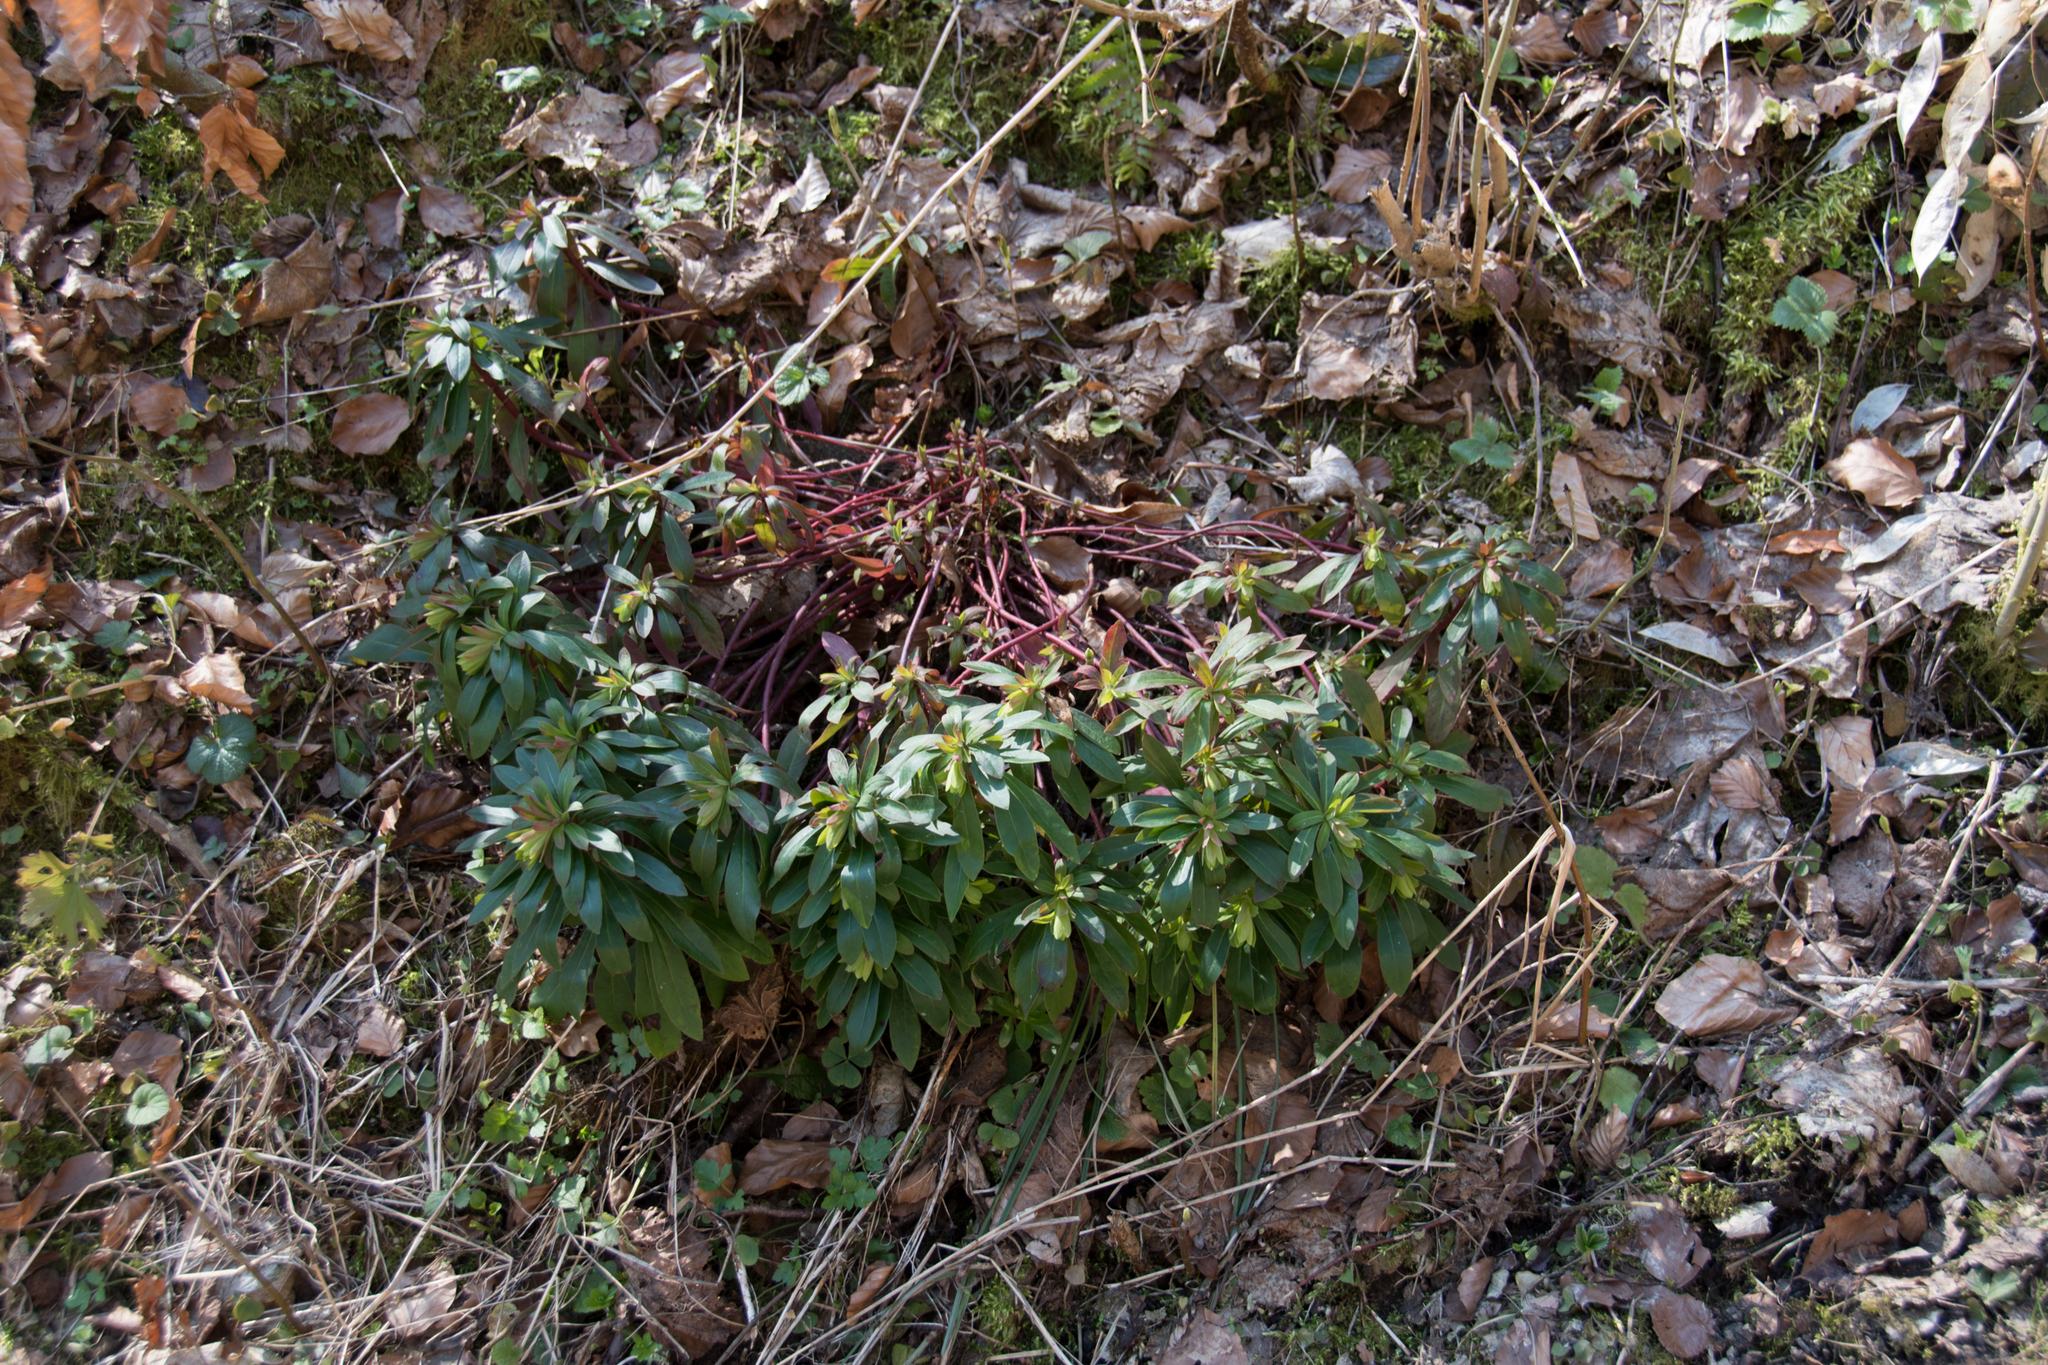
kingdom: Plantae
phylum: Tracheophyta
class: Magnoliopsida
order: Malpighiales
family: Euphorbiaceae
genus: Euphorbia
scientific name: Euphorbia amygdaloides
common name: Wood spurge
